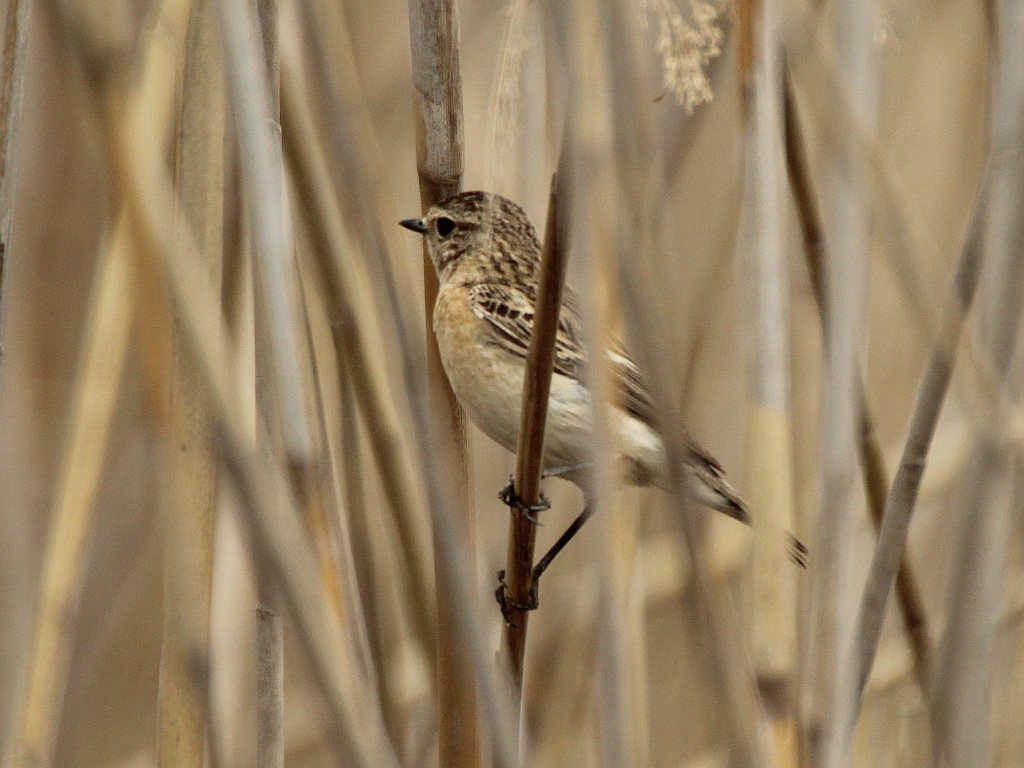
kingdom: Animalia
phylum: Chordata
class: Aves
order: Passeriformes
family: Muscicapidae
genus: Saxicola
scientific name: Saxicola maurus
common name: Siberian stonechat
